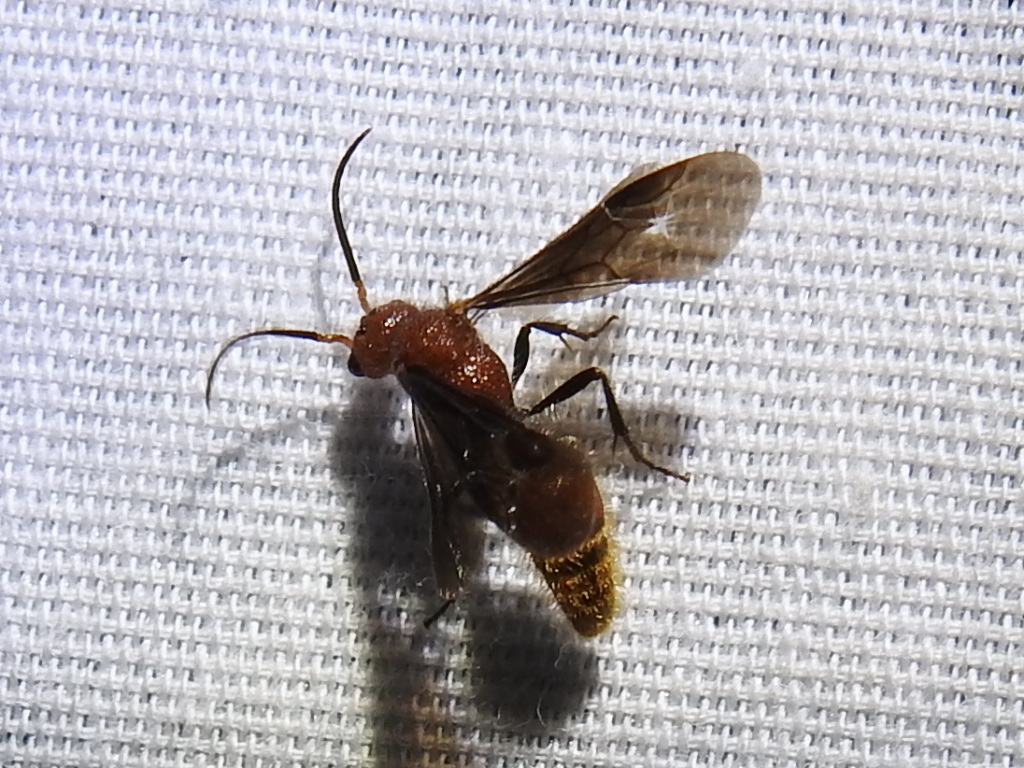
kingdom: Animalia
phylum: Arthropoda
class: Insecta
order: Hymenoptera
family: Mutillidae
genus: Sphaeropthalma
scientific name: Sphaeropthalma
